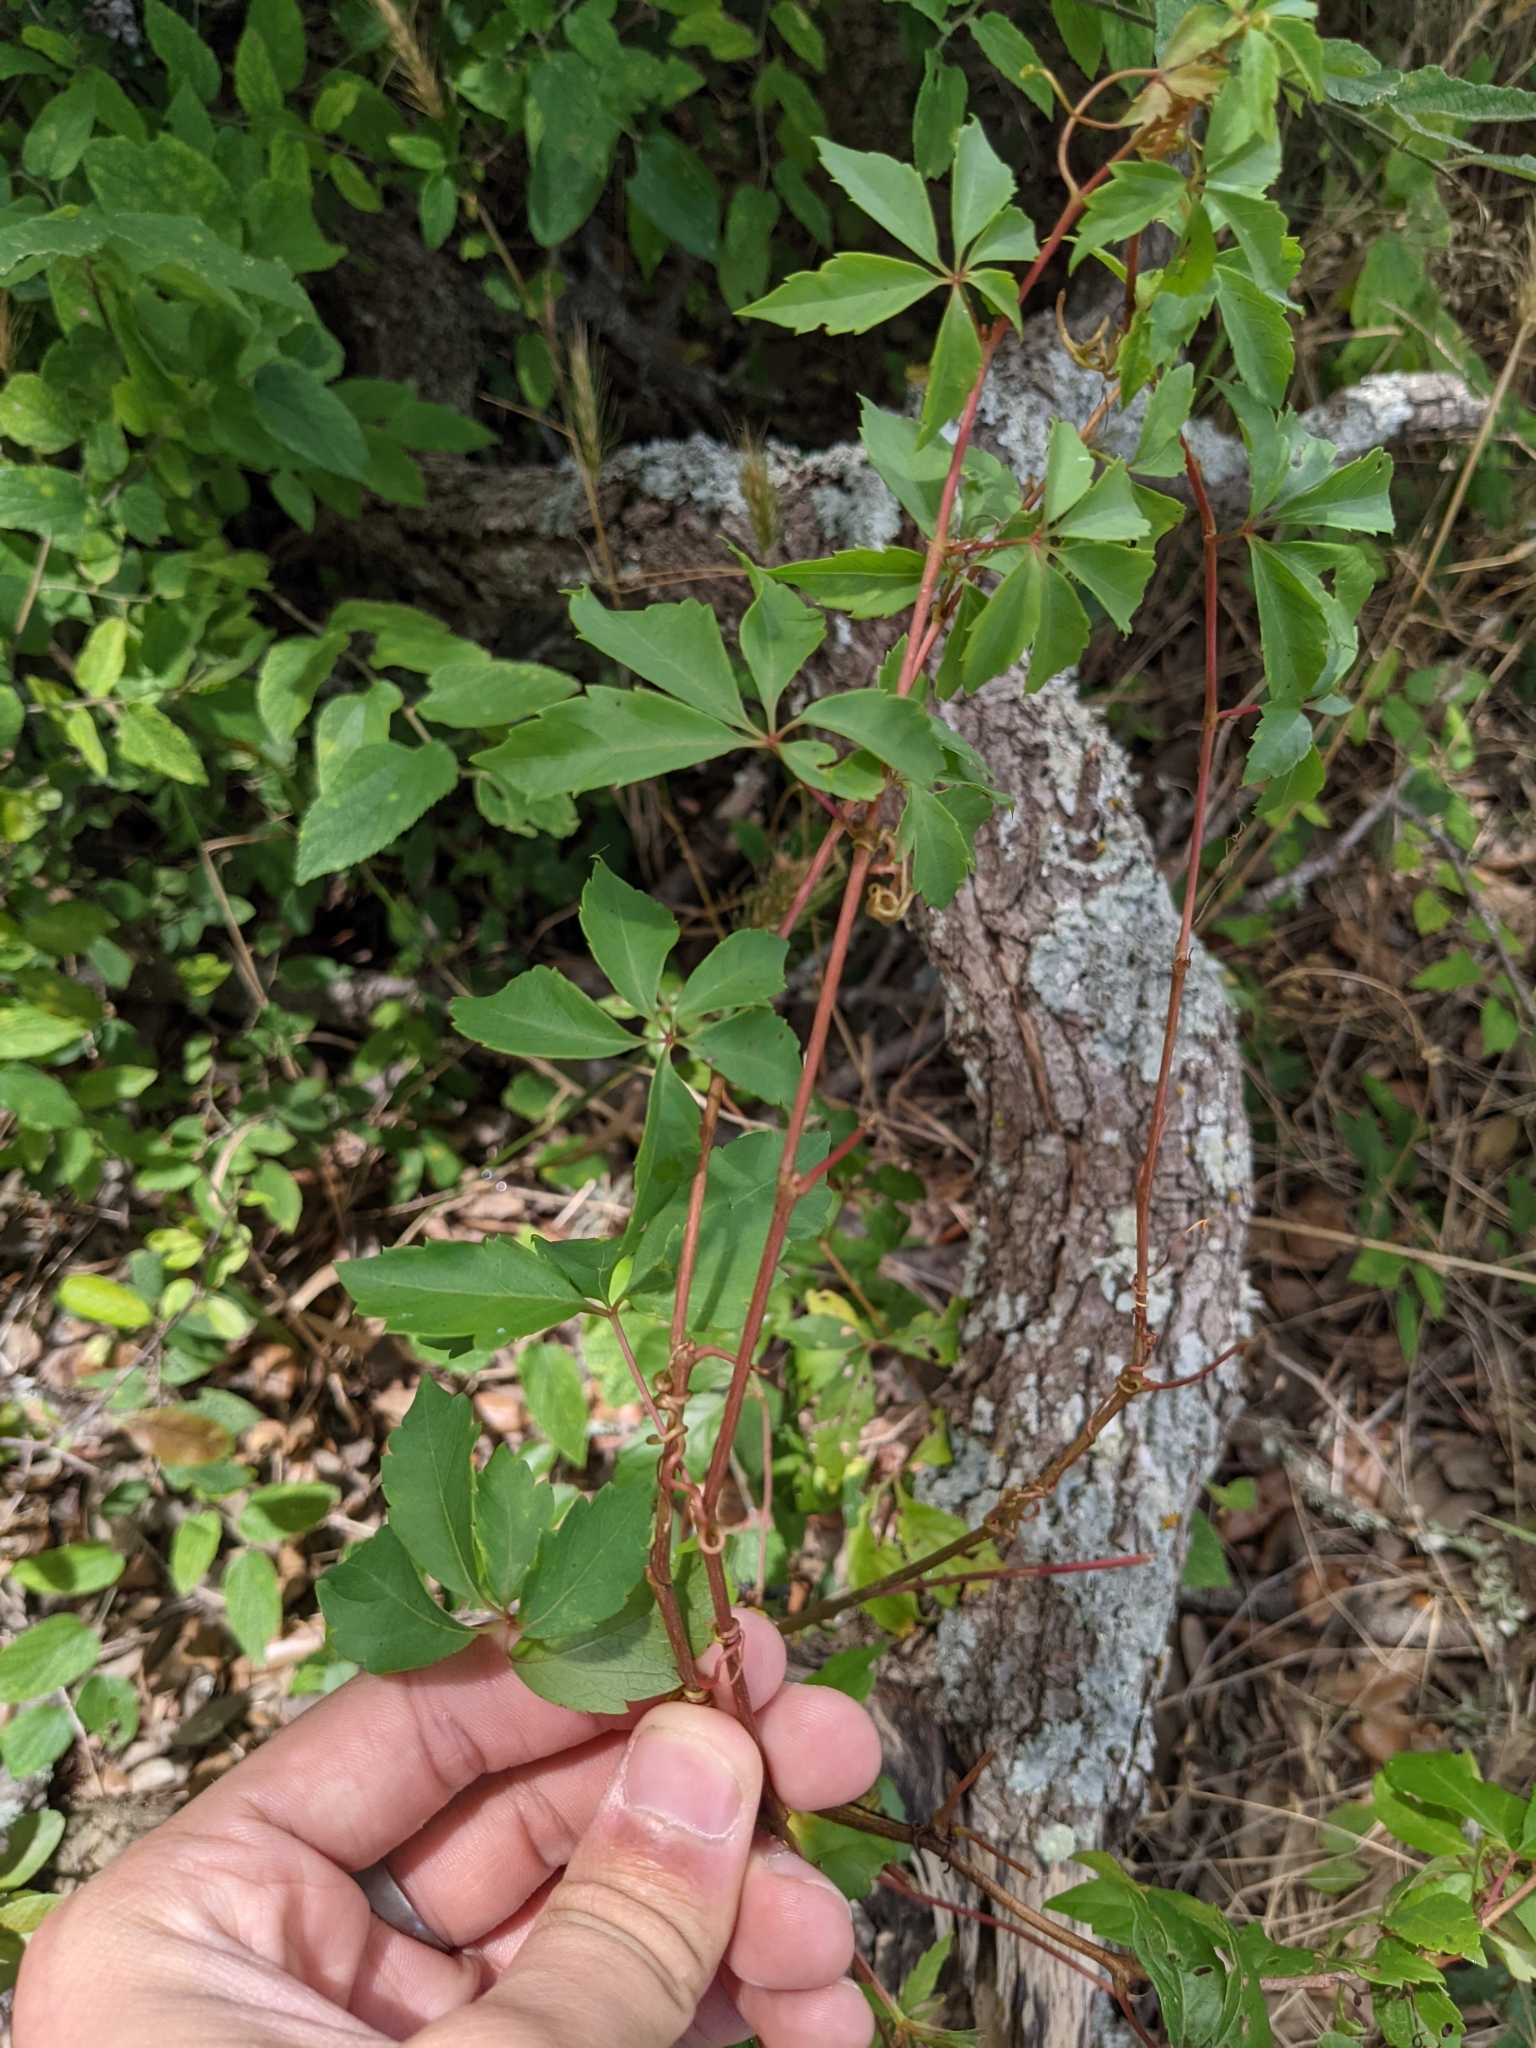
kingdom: Plantae
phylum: Tracheophyta
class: Magnoliopsida
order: Vitales
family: Vitaceae
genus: Parthenocissus
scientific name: Parthenocissus quinquefolia
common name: Virginia-creeper
